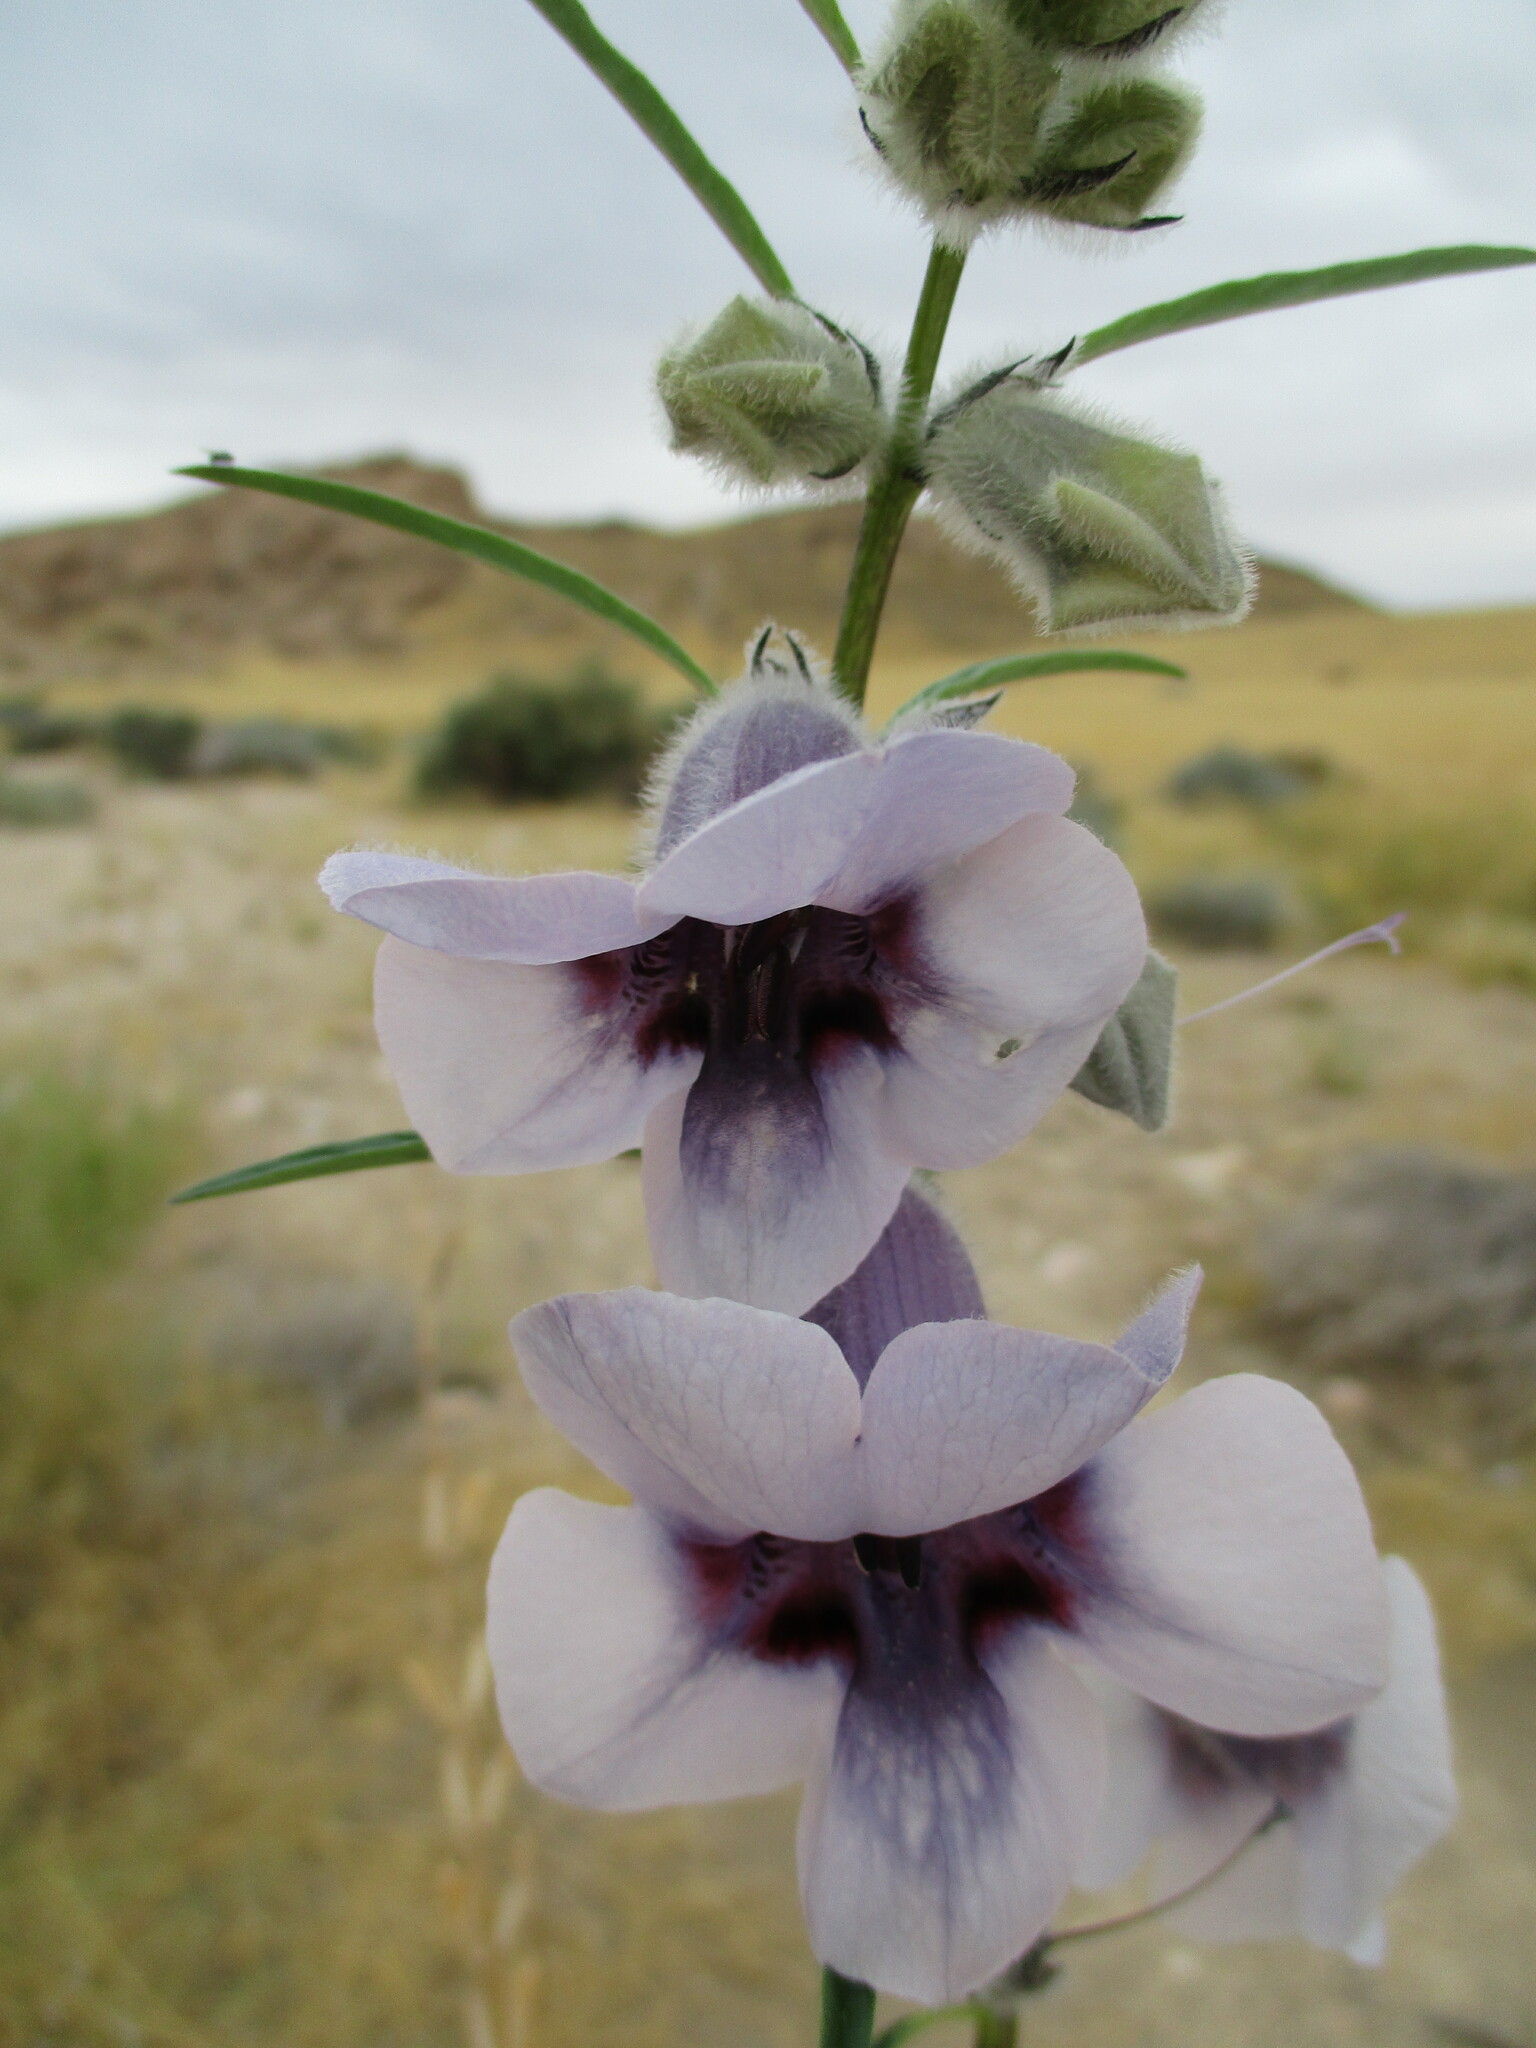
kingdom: Plantae
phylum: Tracheophyta
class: Magnoliopsida
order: Lamiales
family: Pedaliaceae
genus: Sesamum
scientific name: Sesamum triphyllum
